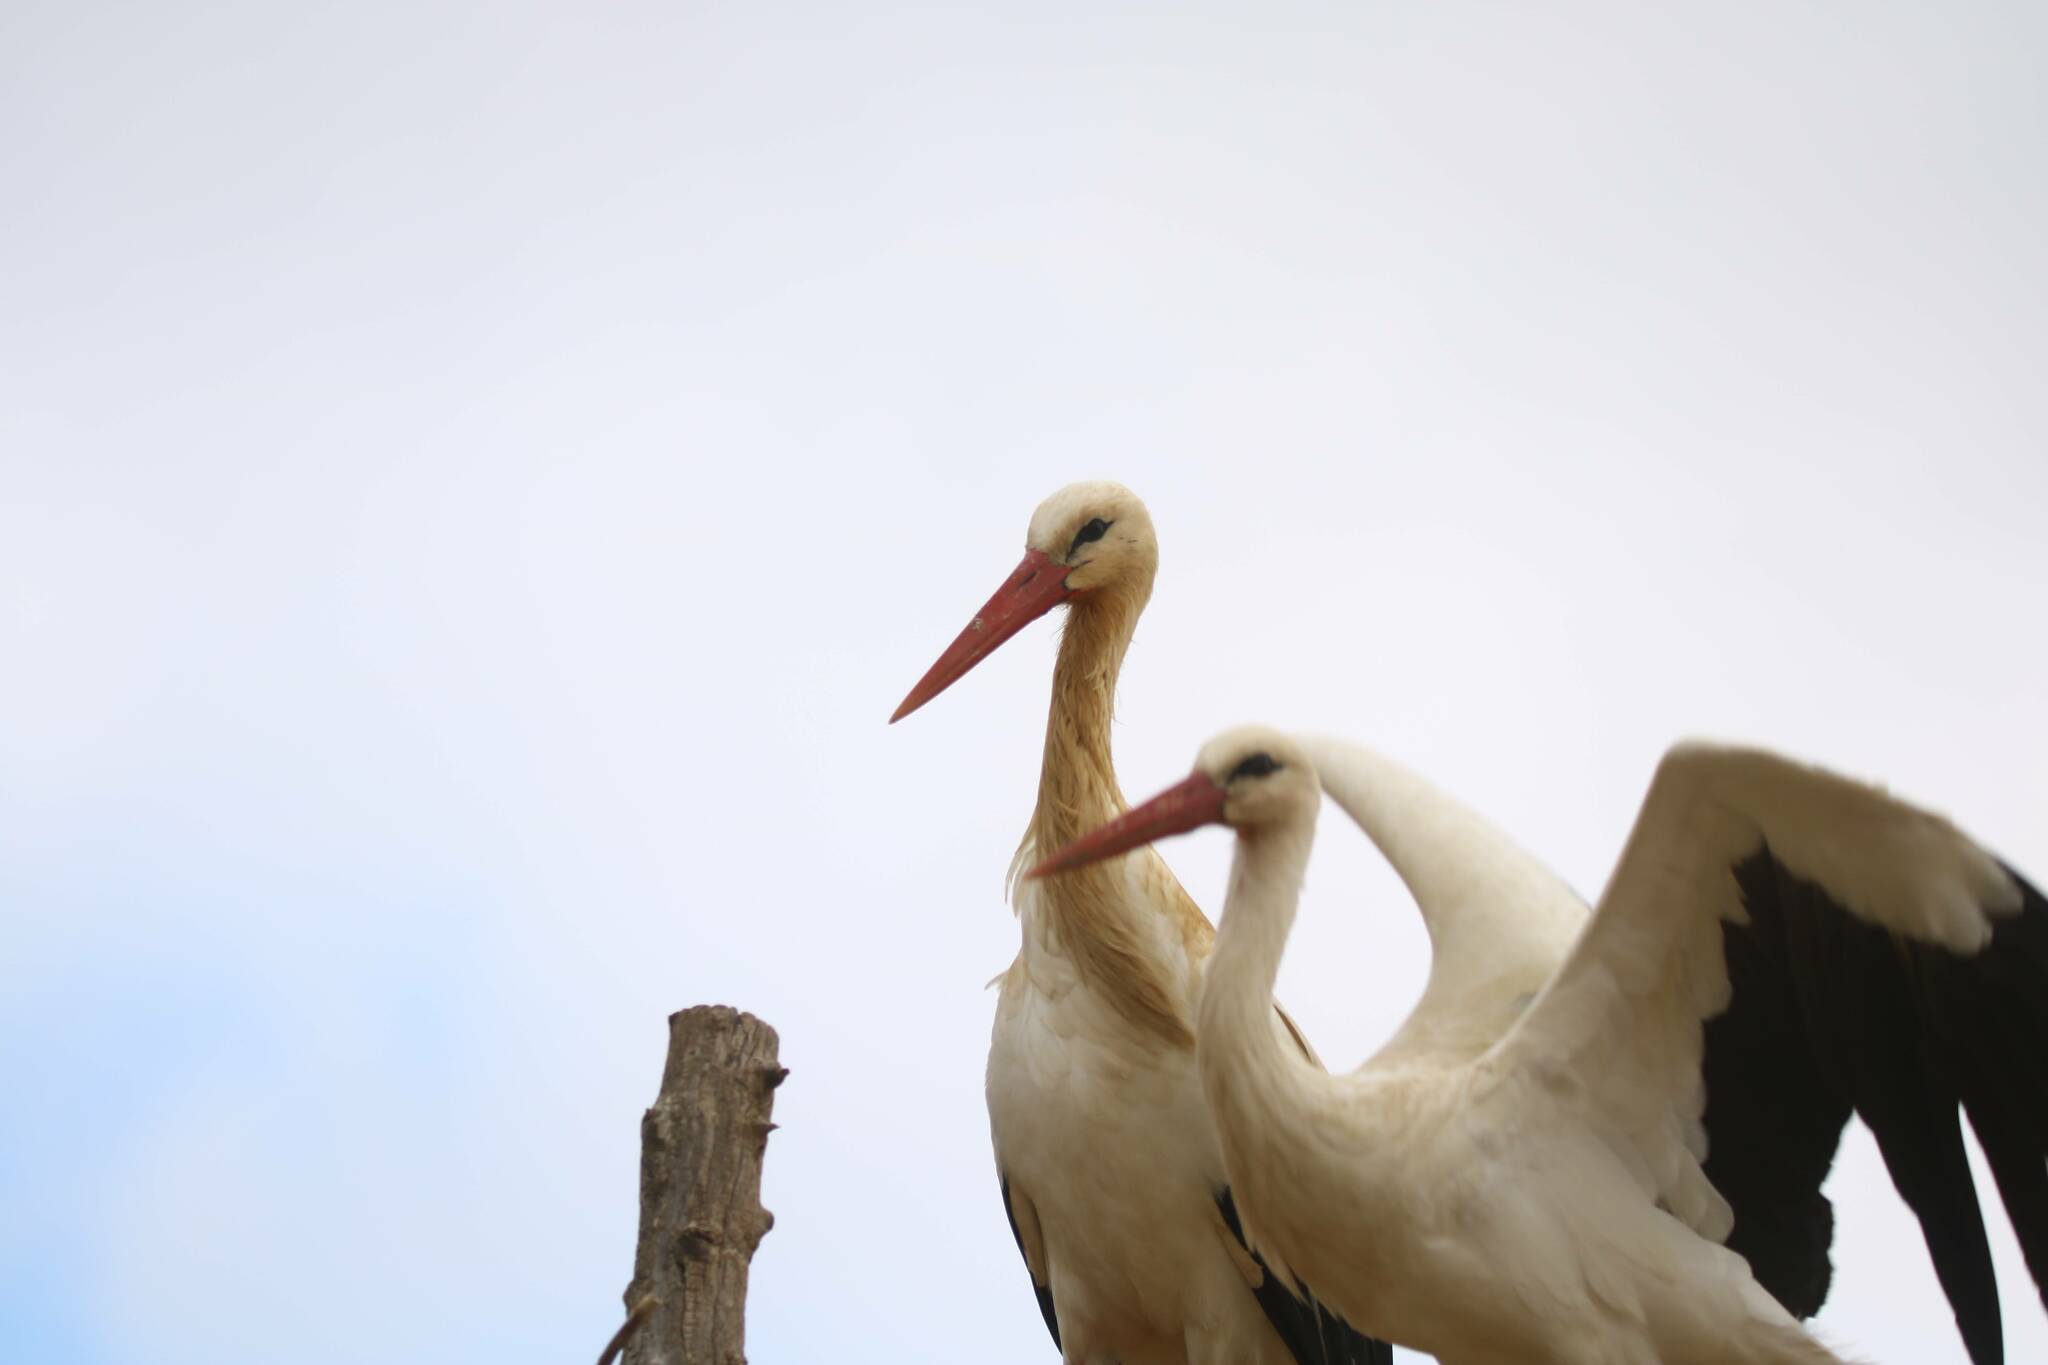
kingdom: Animalia
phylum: Chordata
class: Aves
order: Ciconiiformes
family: Ciconiidae
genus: Ciconia
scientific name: Ciconia ciconia
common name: White stork
